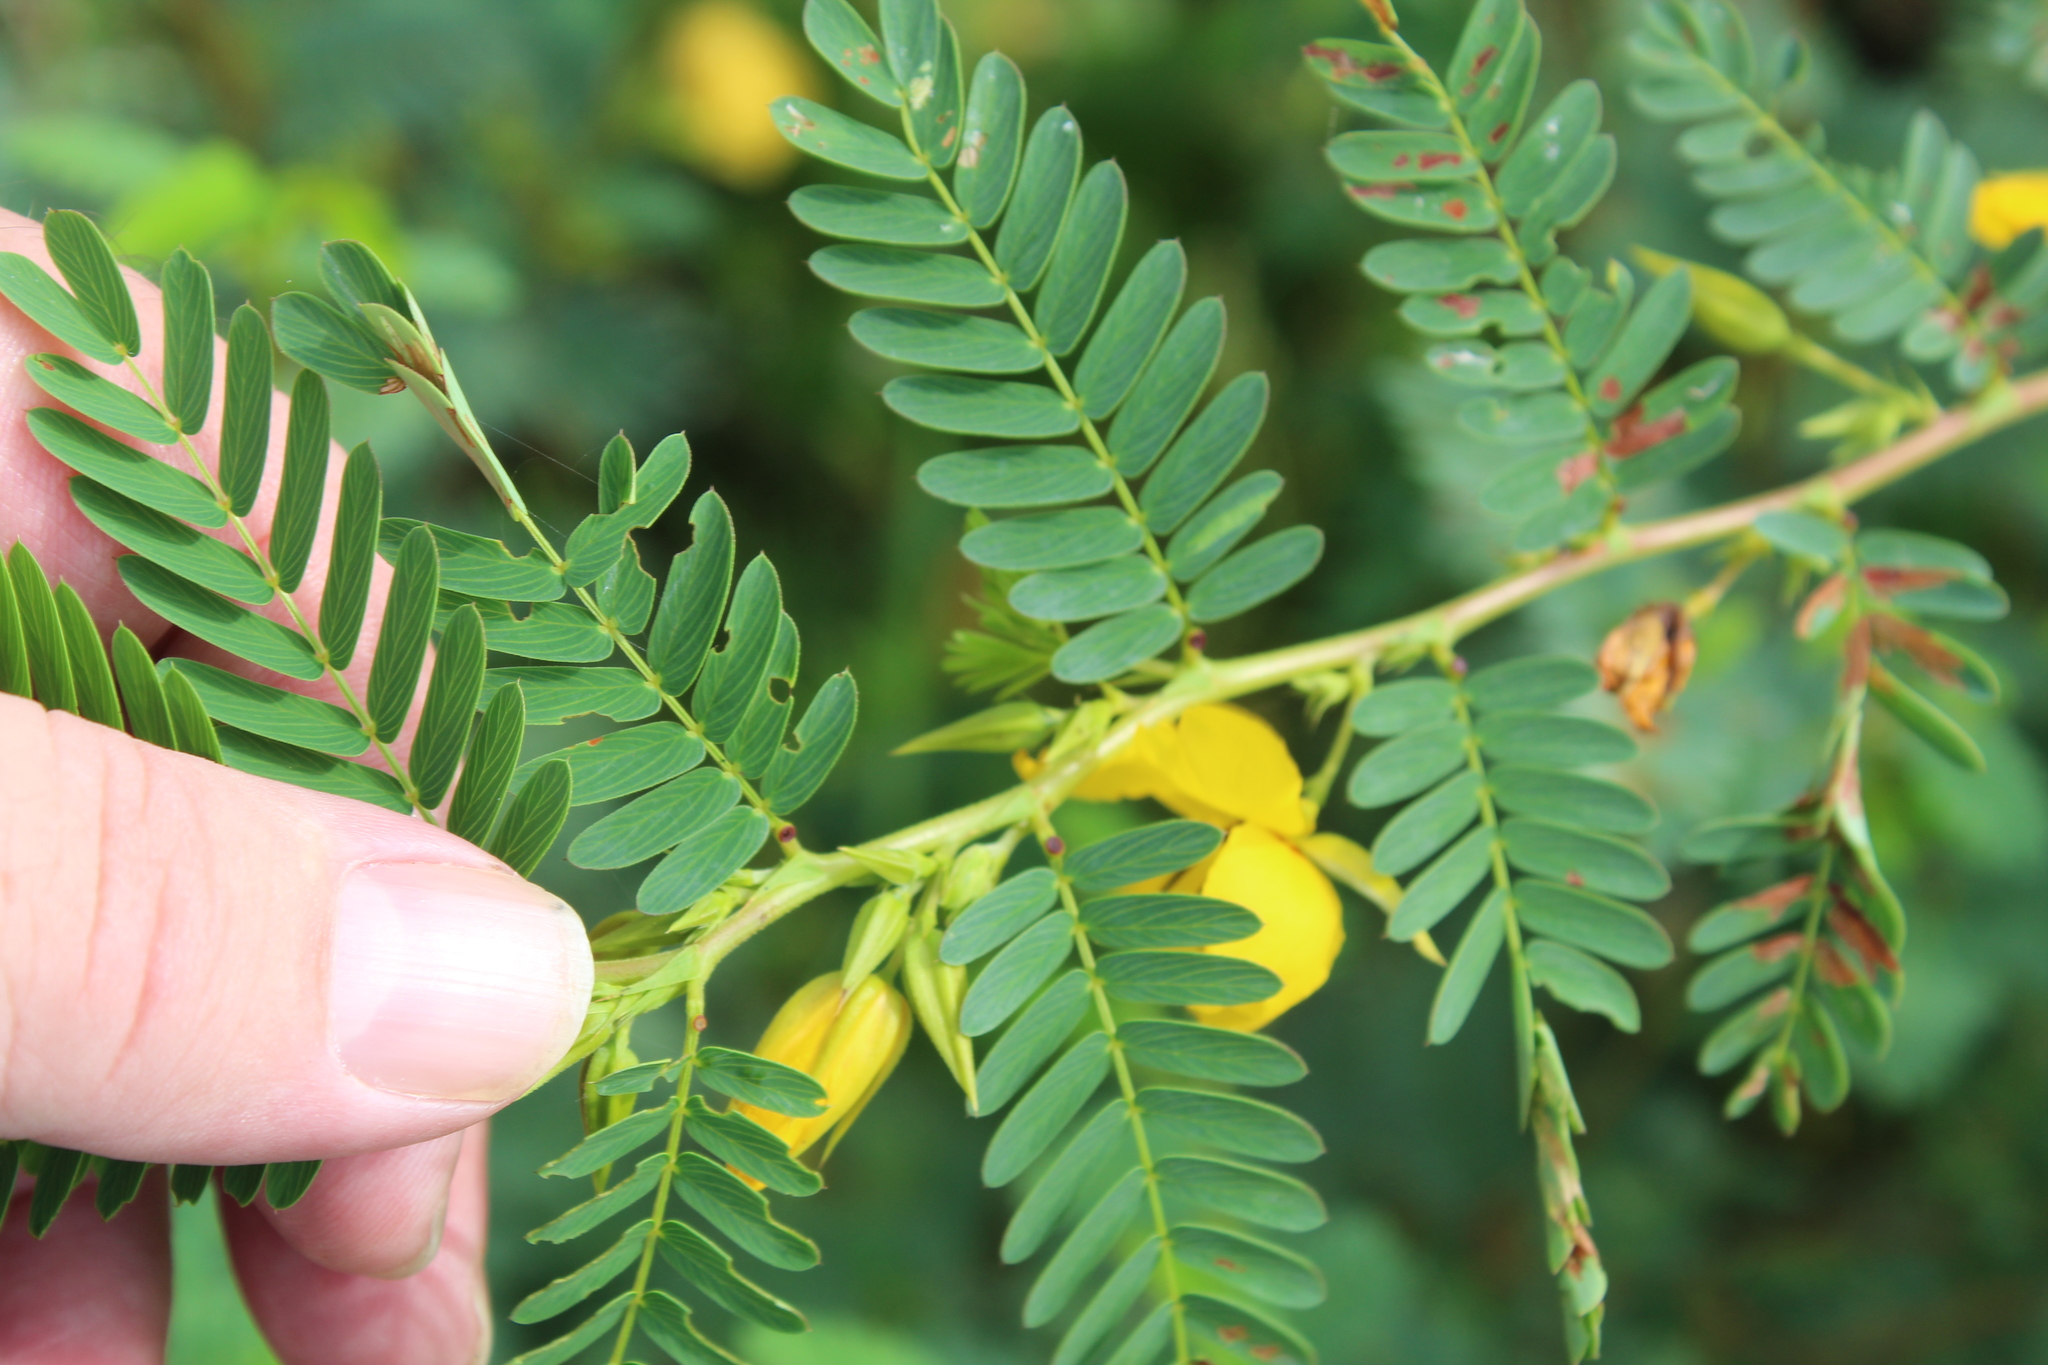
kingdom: Plantae
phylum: Tracheophyta
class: Magnoliopsida
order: Fabales
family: Fabaceae
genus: Chamaecrista
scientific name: Chamaecrista fasciculata
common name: Golden cassia
